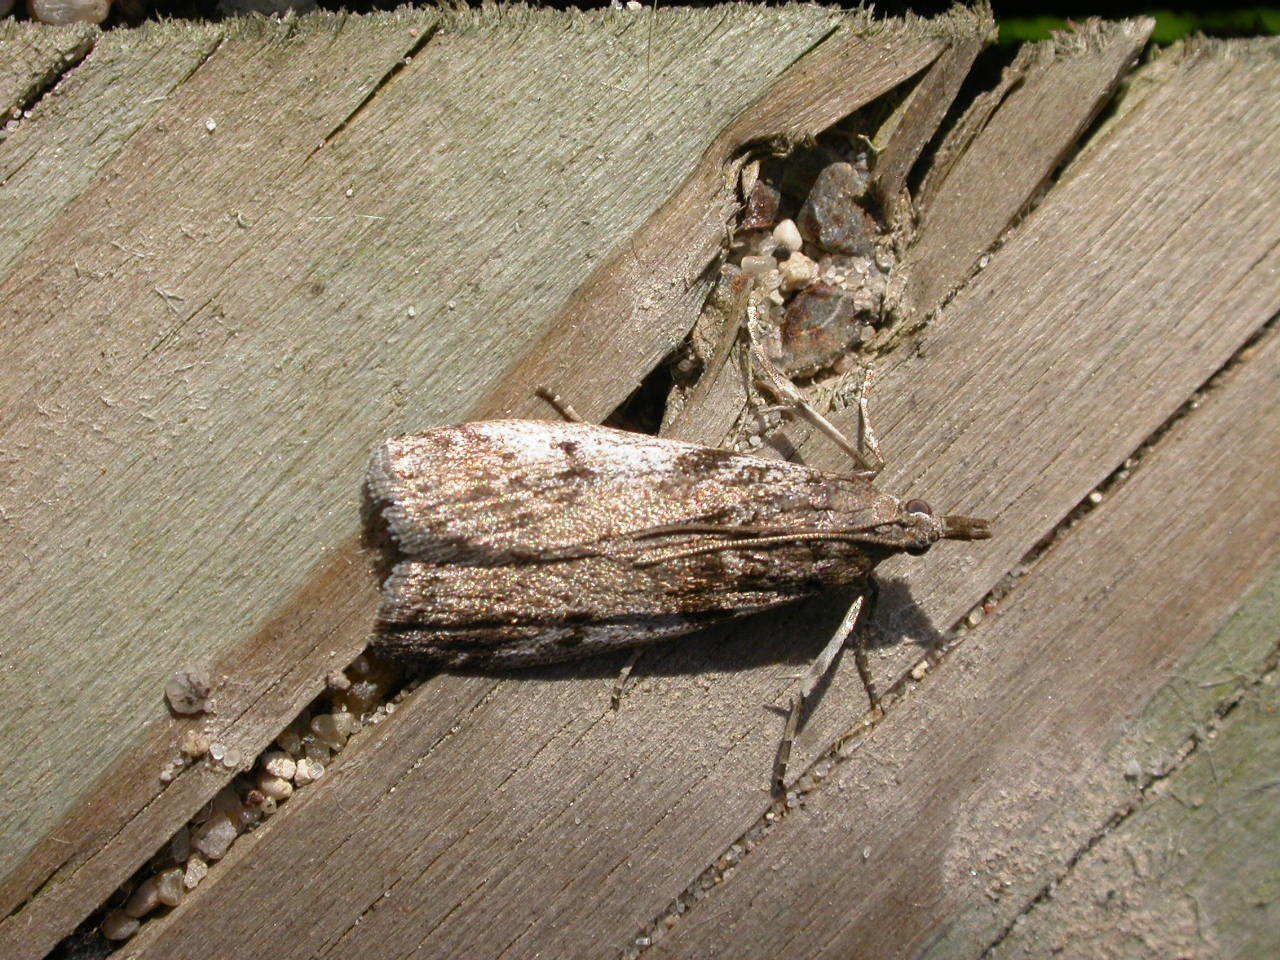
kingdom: Animalia
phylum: Arthropoda
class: Insecta
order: Lepidoptera
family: Pyralidae
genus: Zophodia
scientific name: Zophodia convolutella
